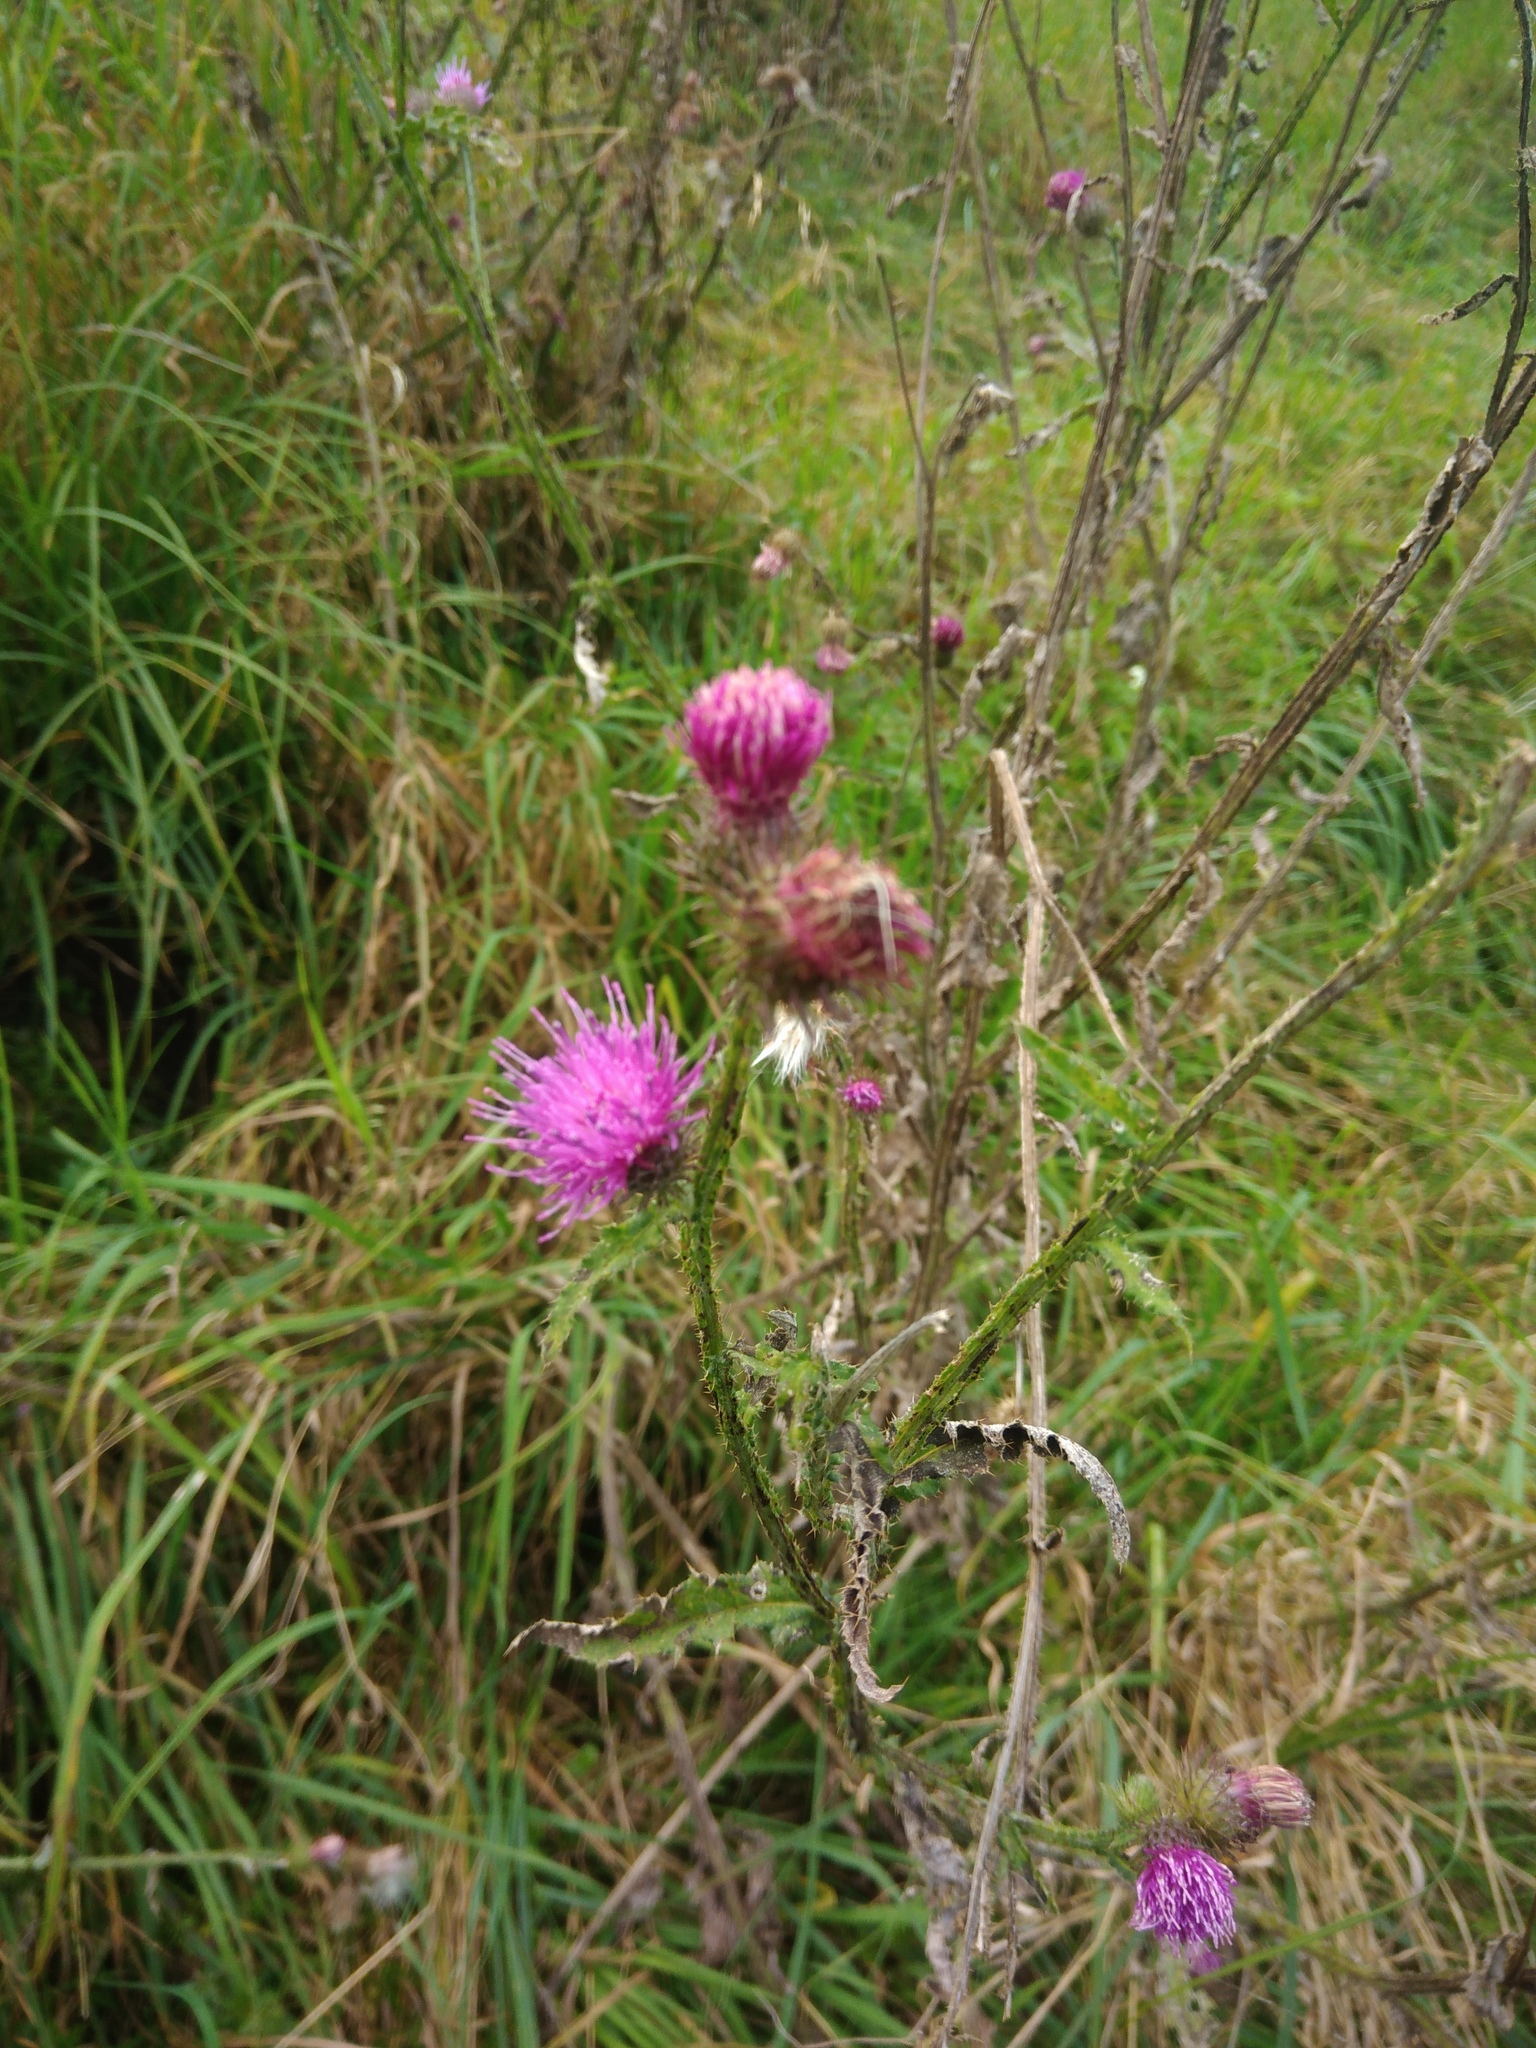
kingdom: Plantae
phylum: Tracheophyta
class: Magnoliopsida
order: Asterales
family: Asteraceae
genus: Carduus
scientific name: Carduus crispus
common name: Welted thistle
